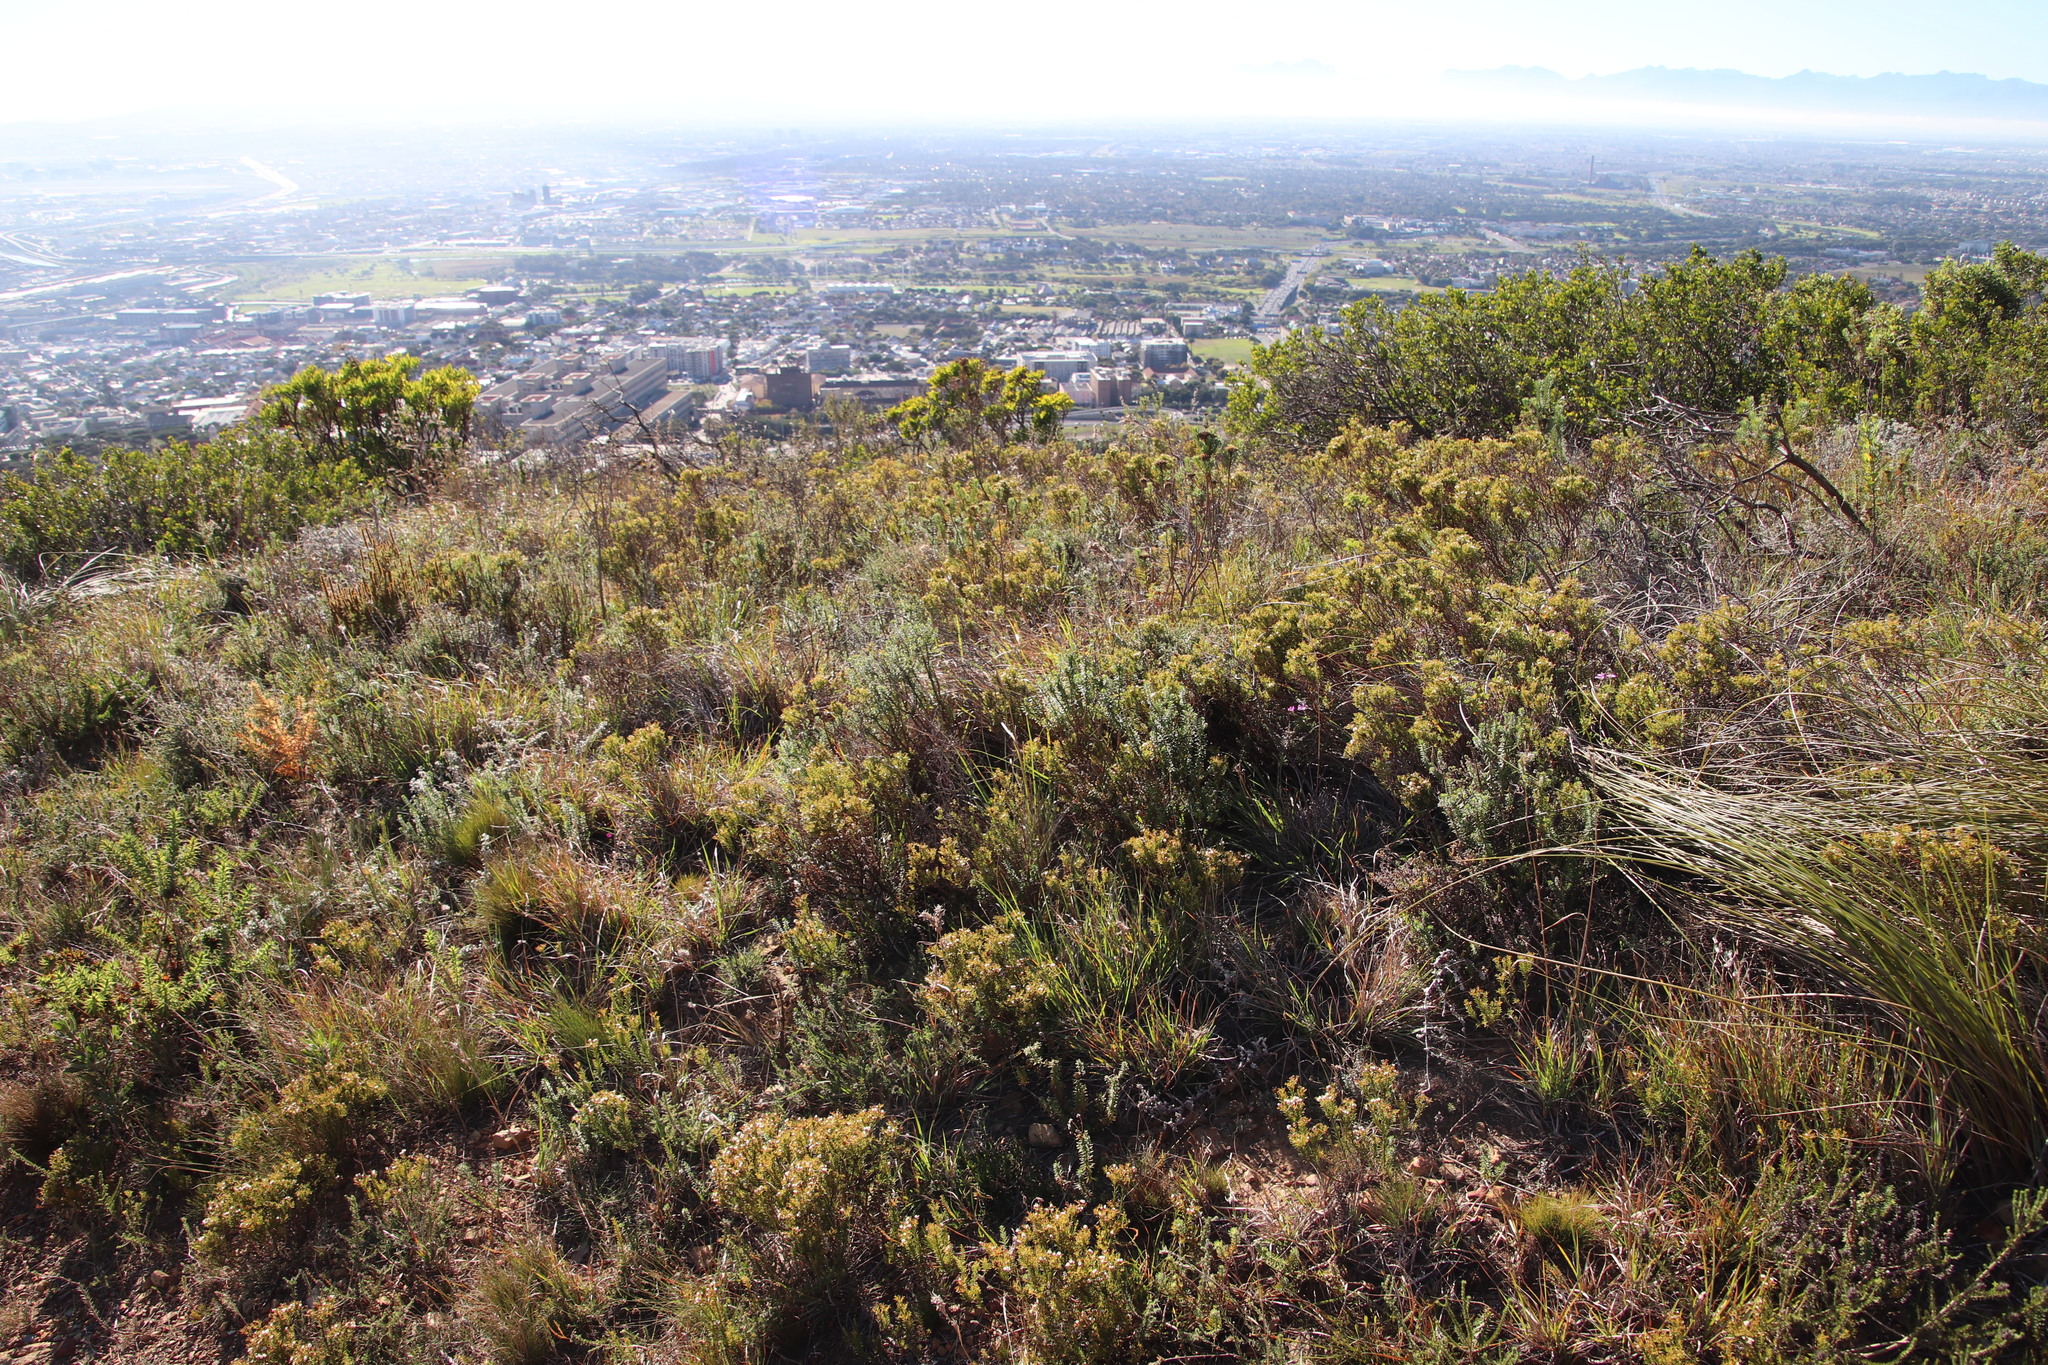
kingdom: Plantae
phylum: Tracheophyta
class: Magnoliopsida
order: Sapindales
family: Rutaceae
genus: Diosma
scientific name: Diosma hirsuta
